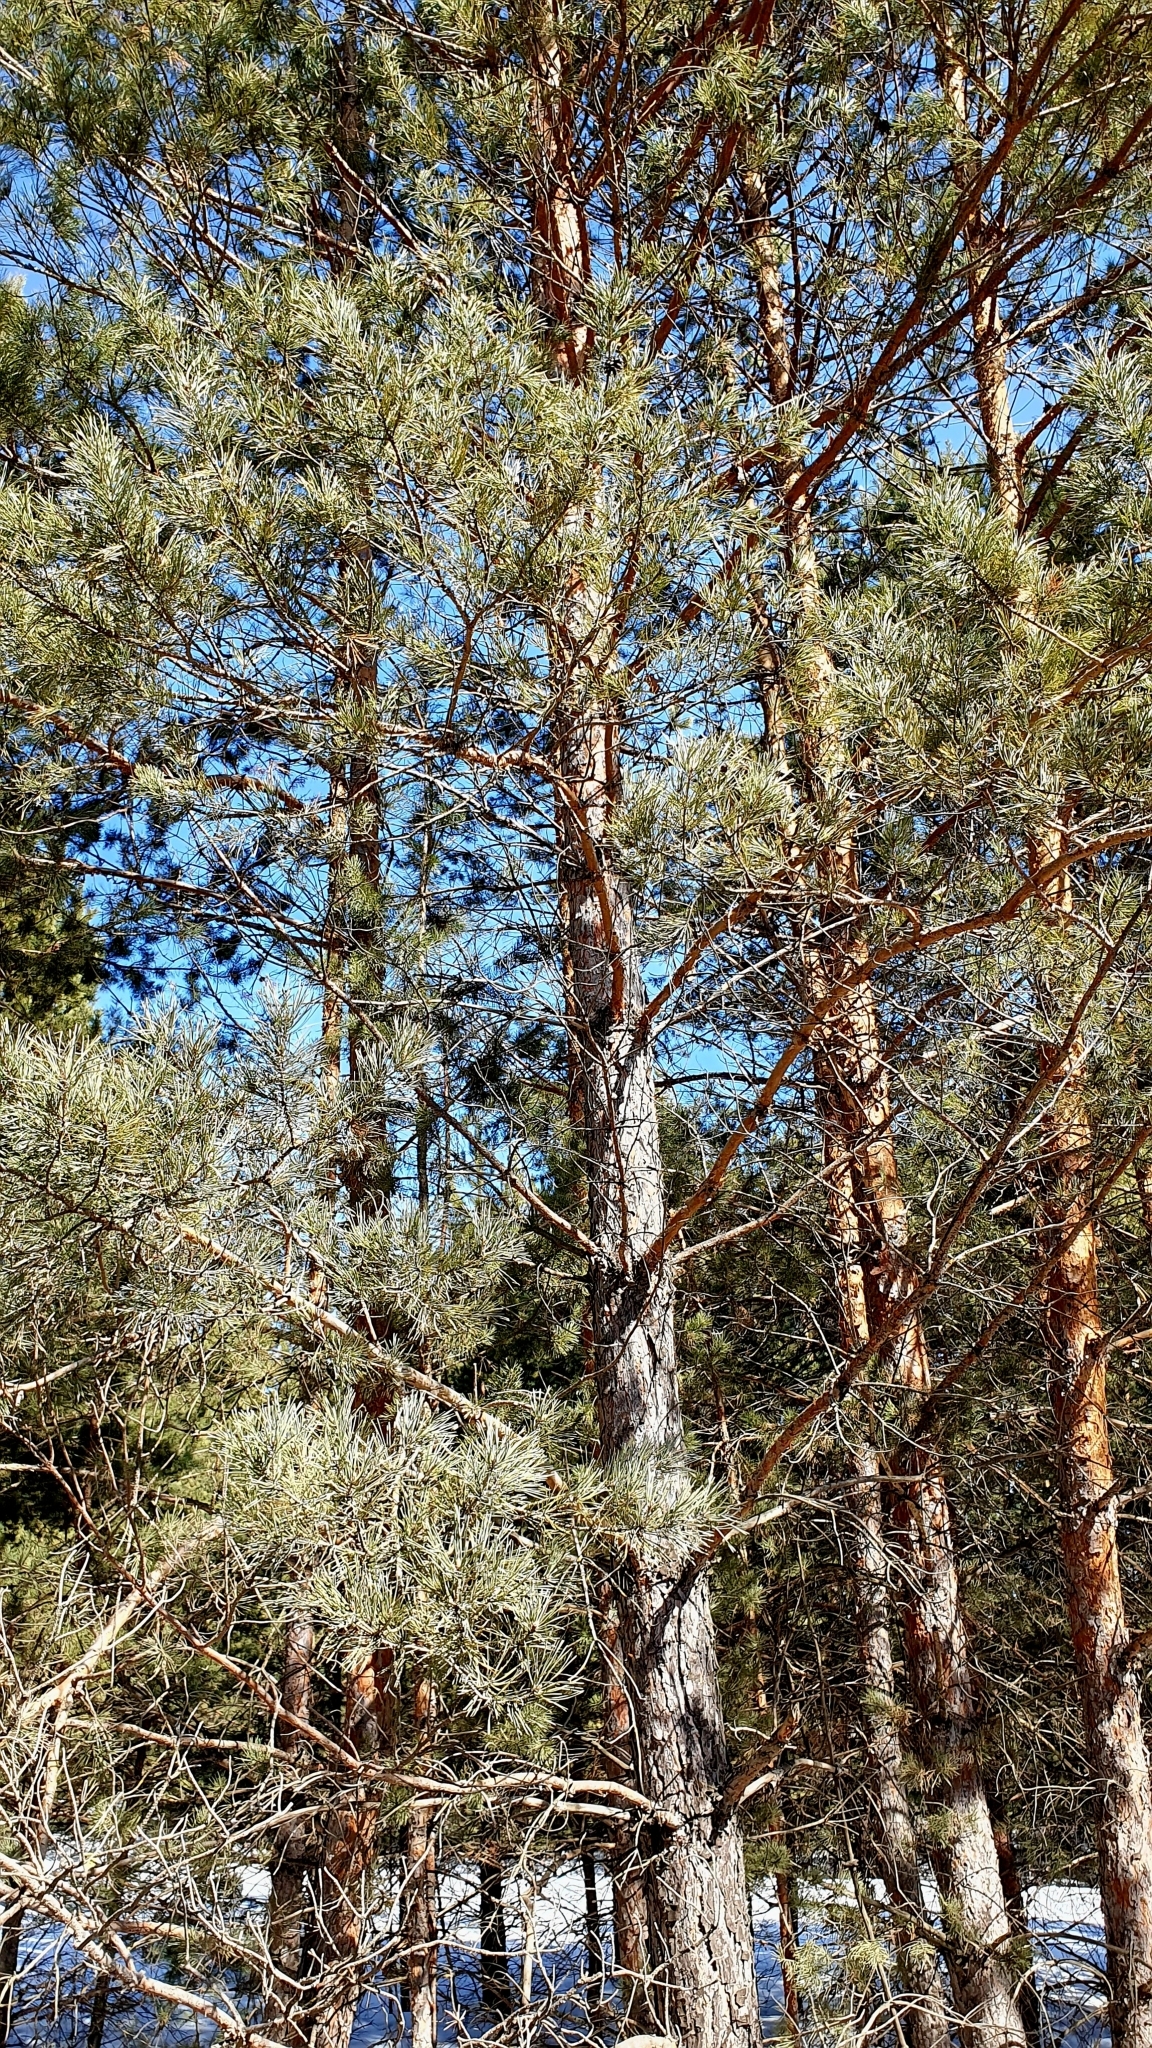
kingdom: Plantae
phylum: Tracheophyta
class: Pinopsida
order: Pinales
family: Pinaceae
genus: Pinus
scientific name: Pinus sylvestris
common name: Scots pine
